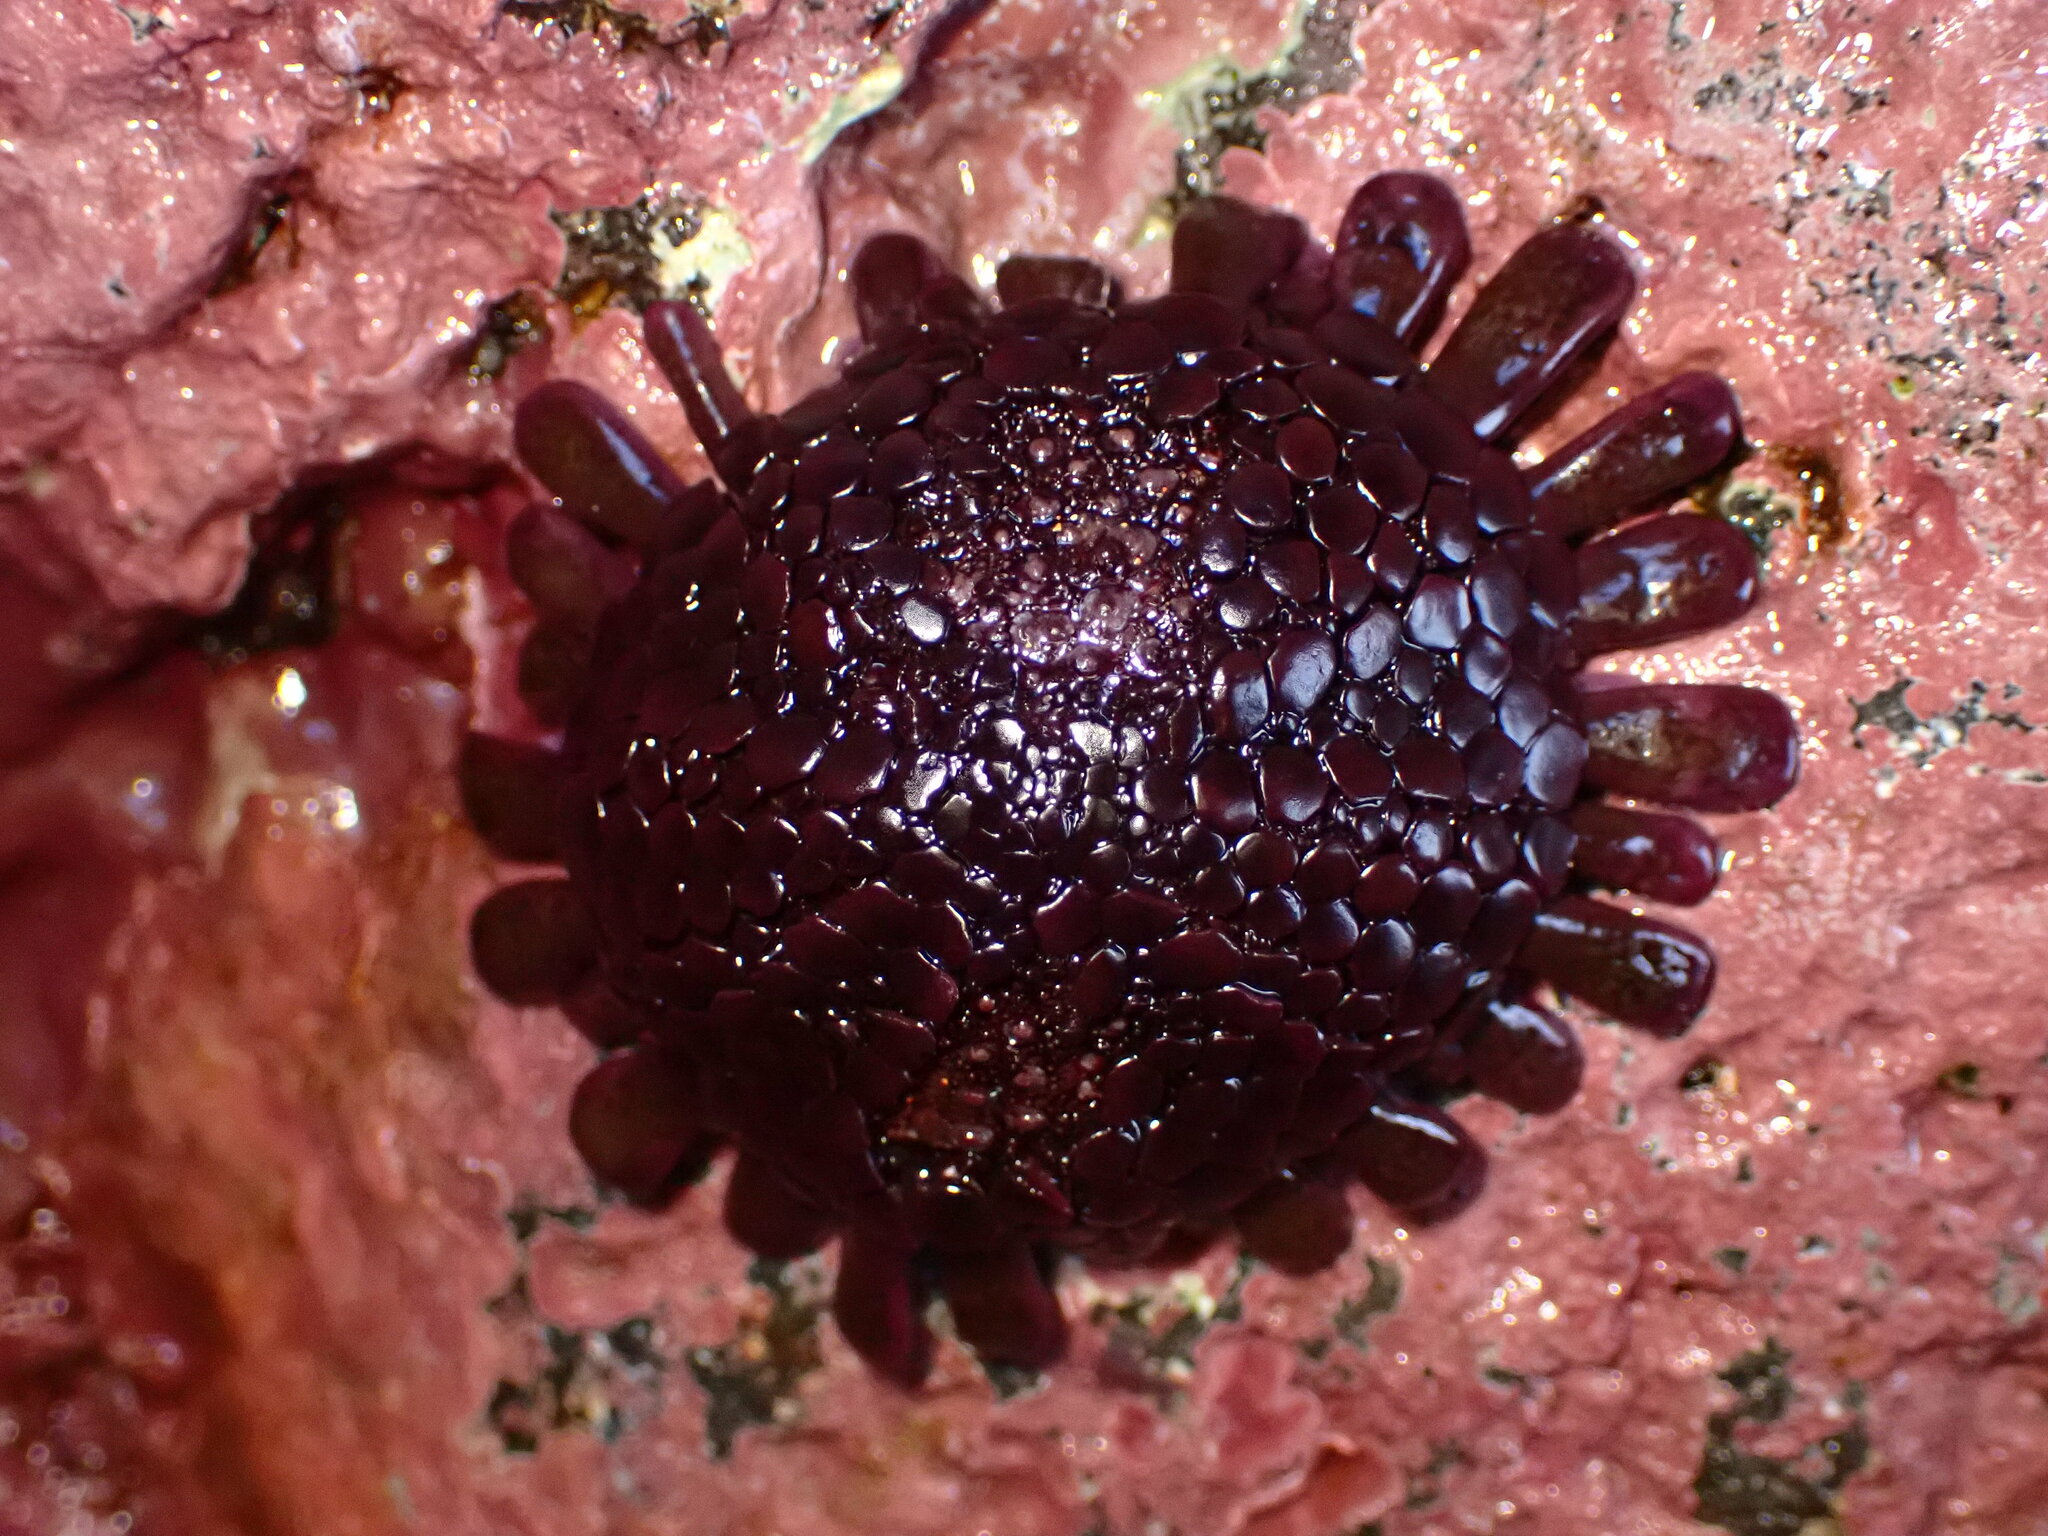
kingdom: Animalia
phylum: Echinodermata
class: Echinoidea
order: Camarodonta
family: Echinometridae
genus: Colobocentrotus
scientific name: Colobocentrotus atratus
